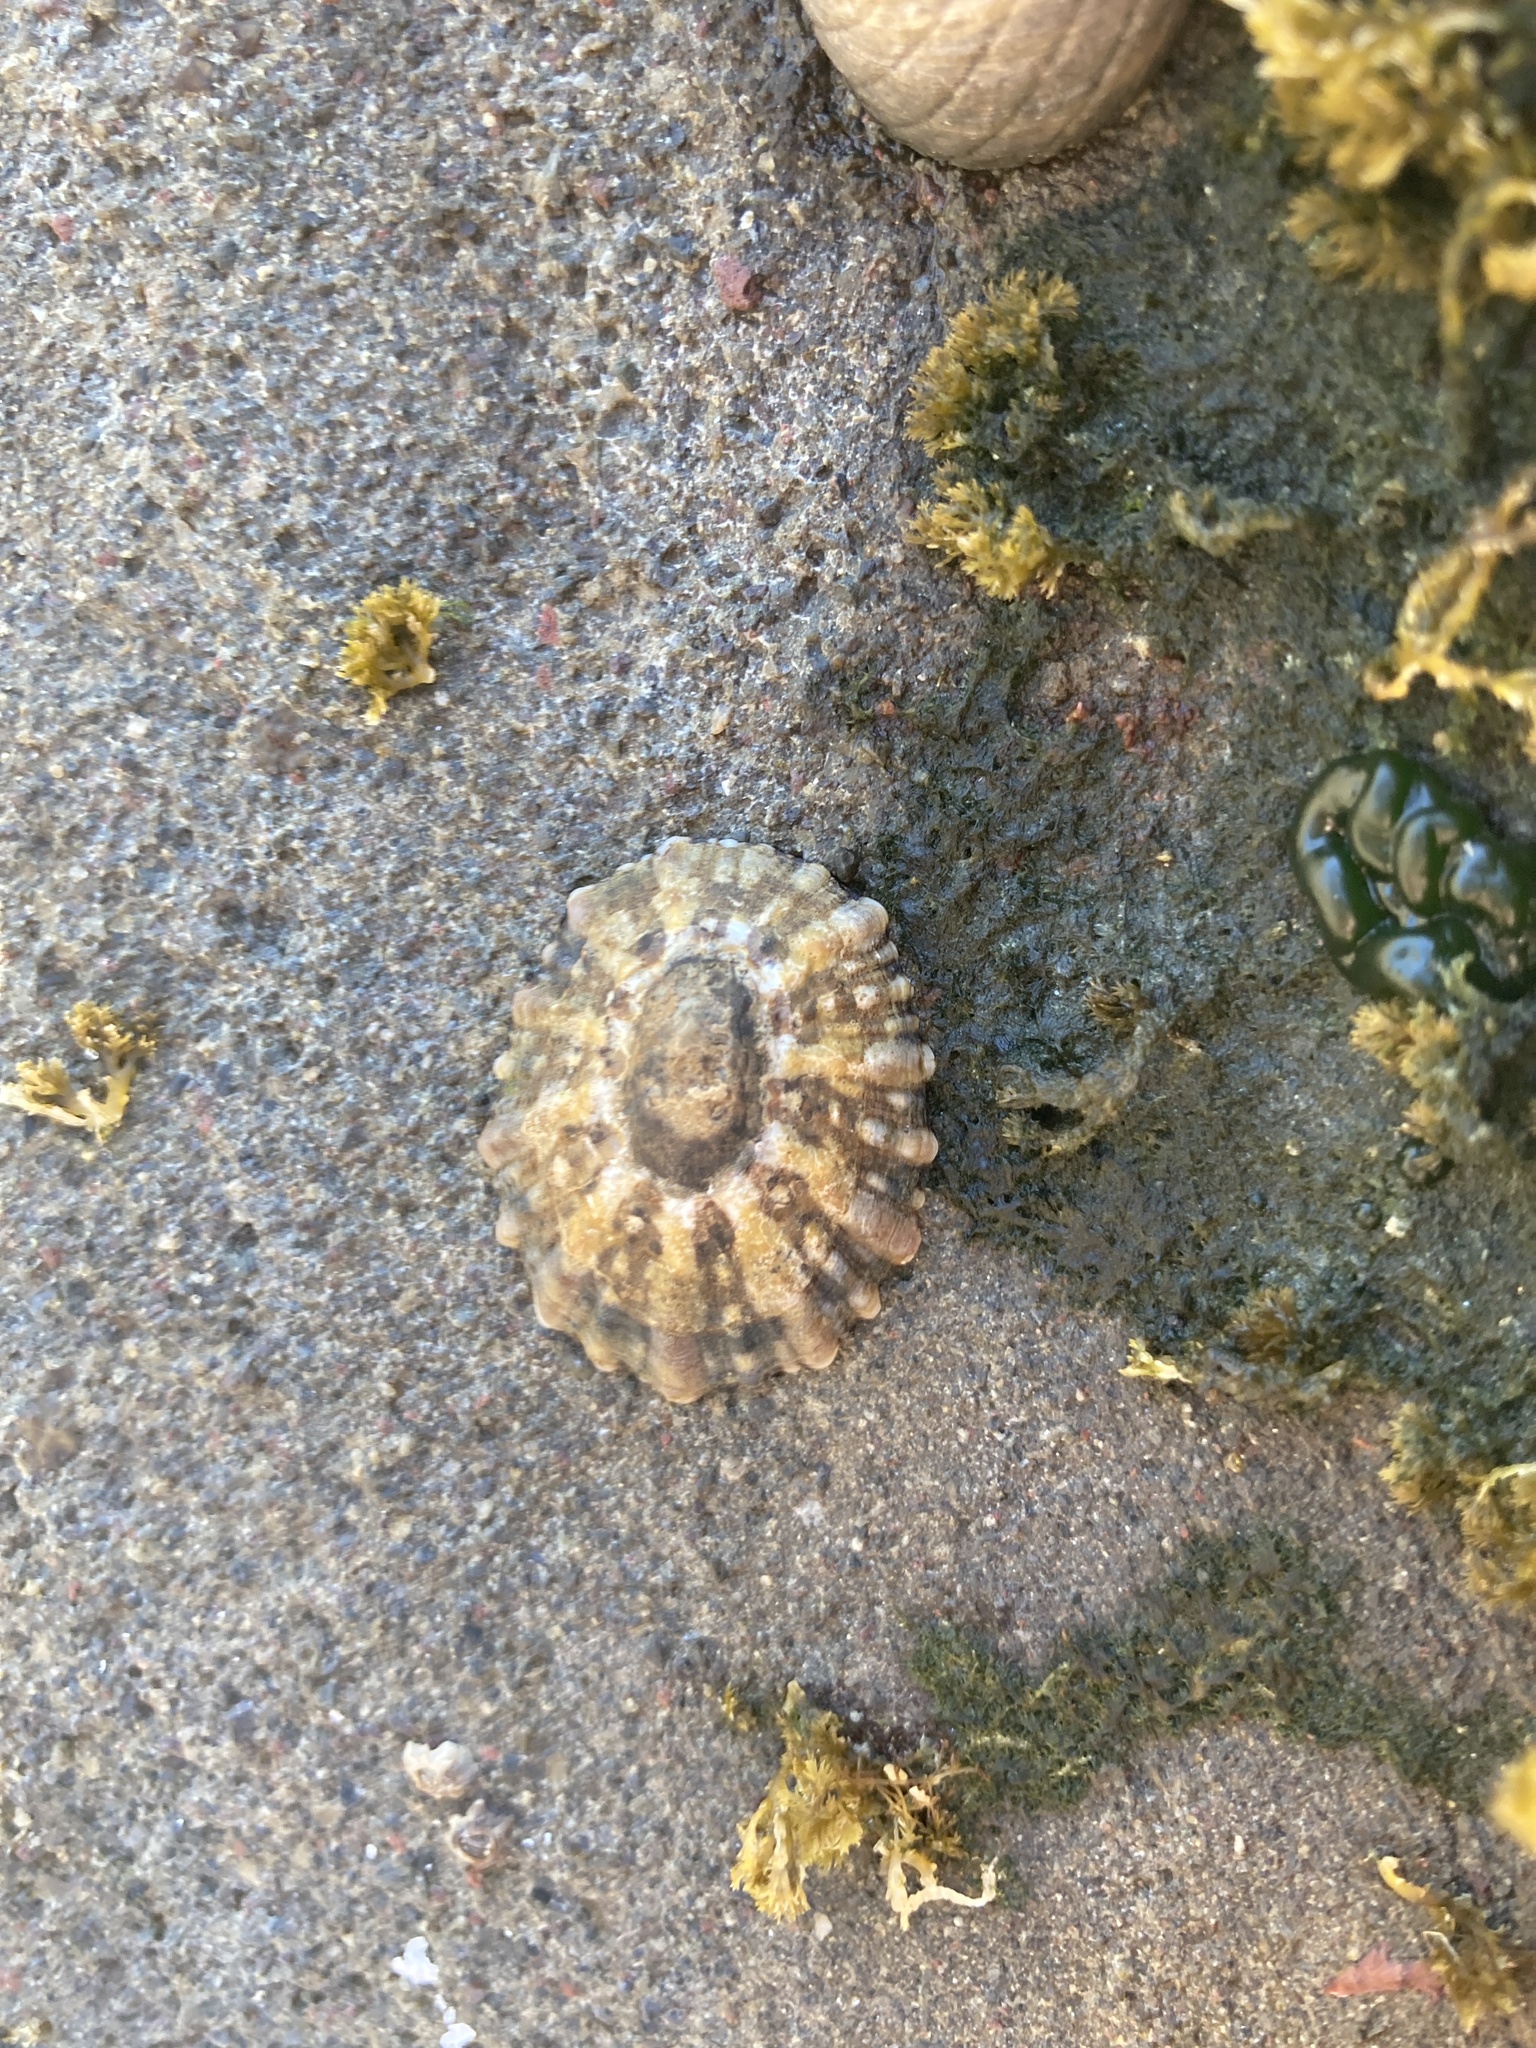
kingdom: Animalia
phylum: Mollusca
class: Gastropoda
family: Nacellidae
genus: Cellana
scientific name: Cellana ornata
